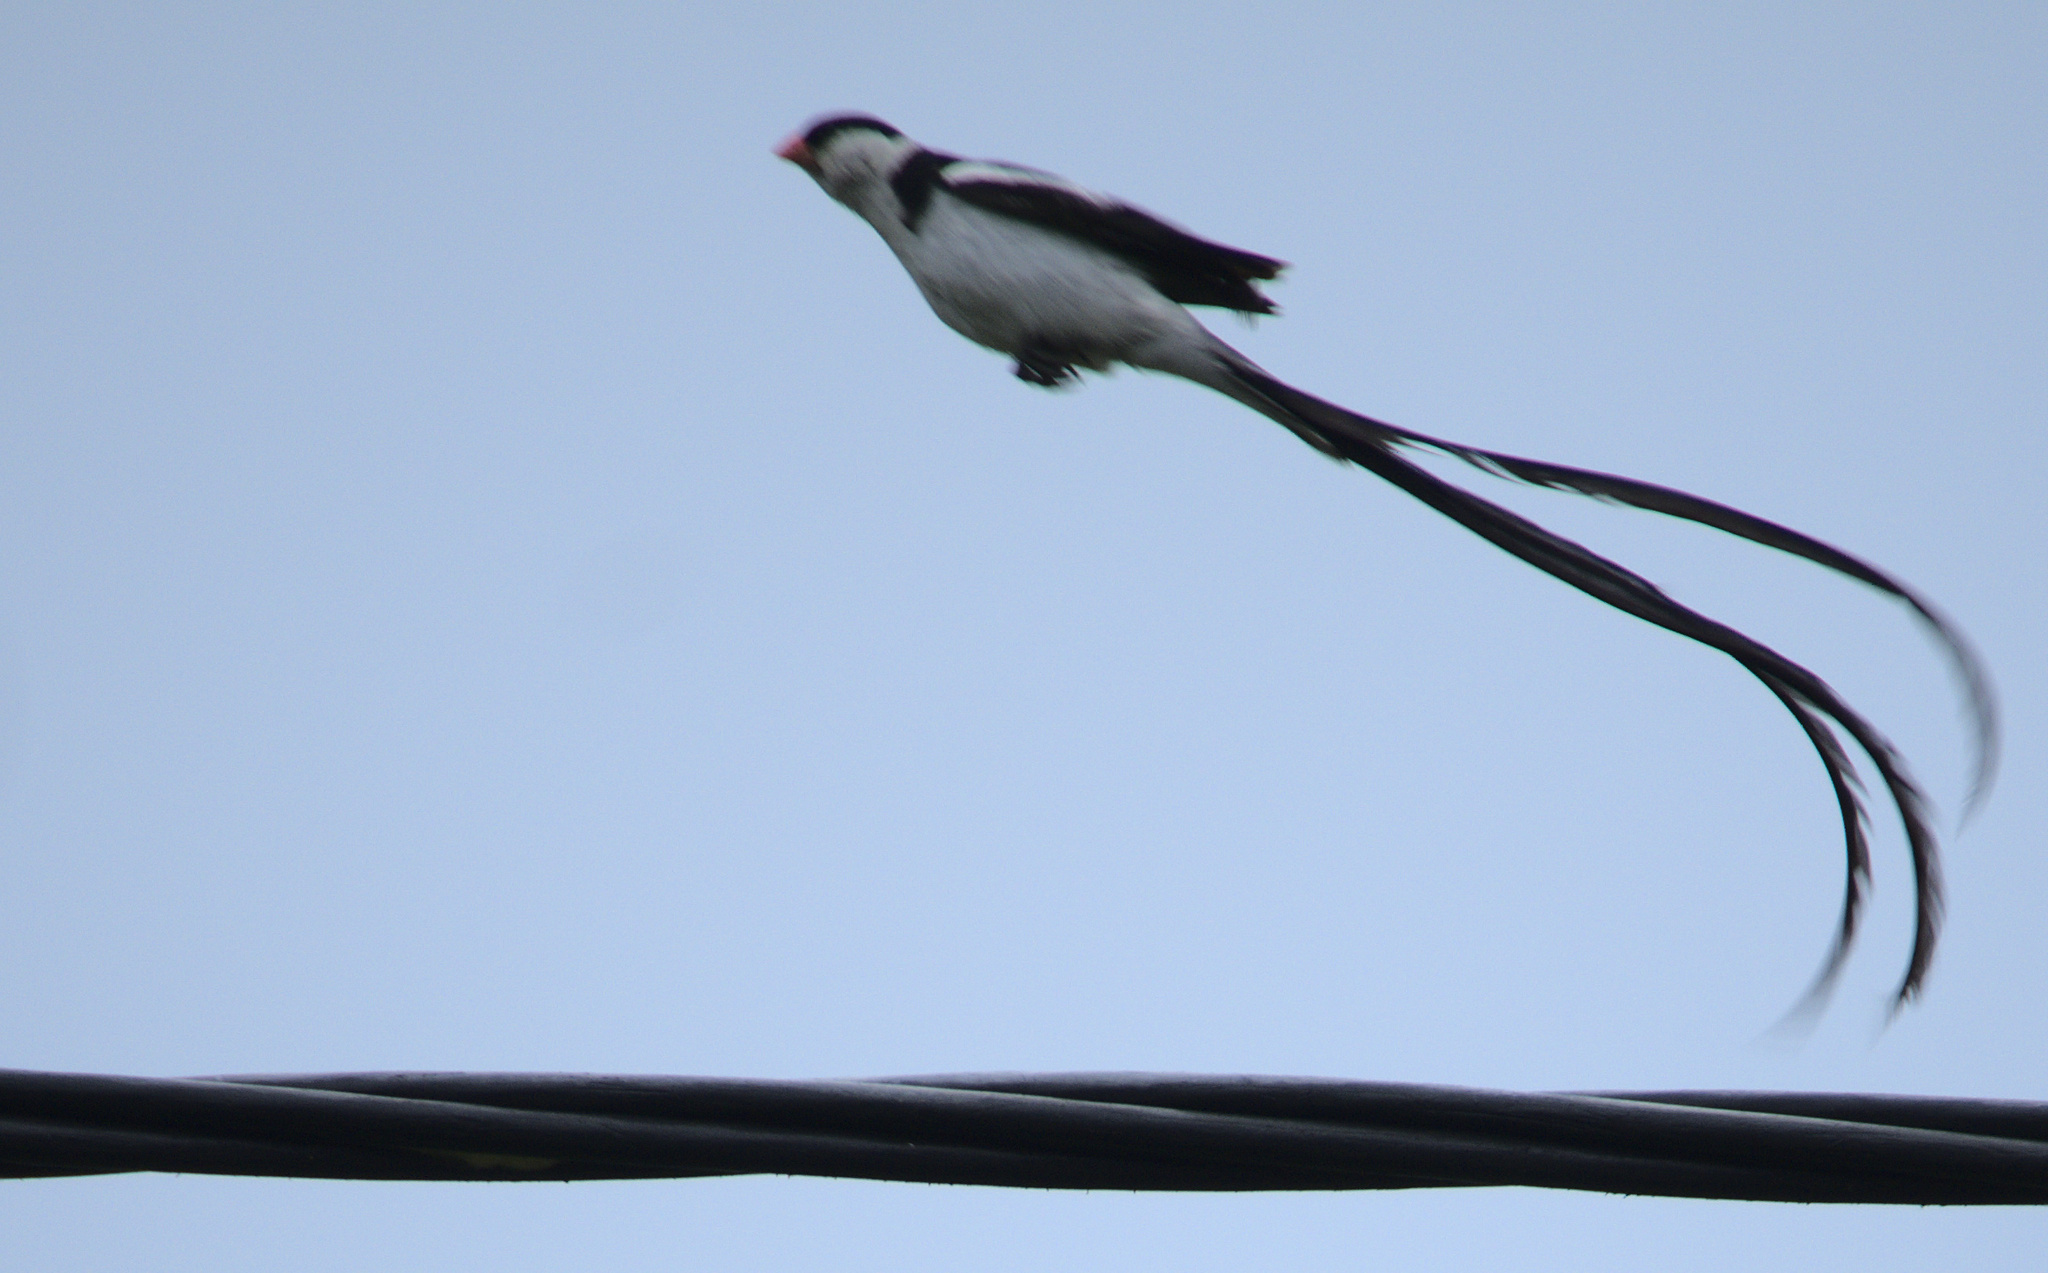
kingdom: Animalia
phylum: Chordata
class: Aves
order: Passeriformes
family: Viduidae
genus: Vidua
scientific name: Vidua macroura
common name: Pin-tailed whydah
